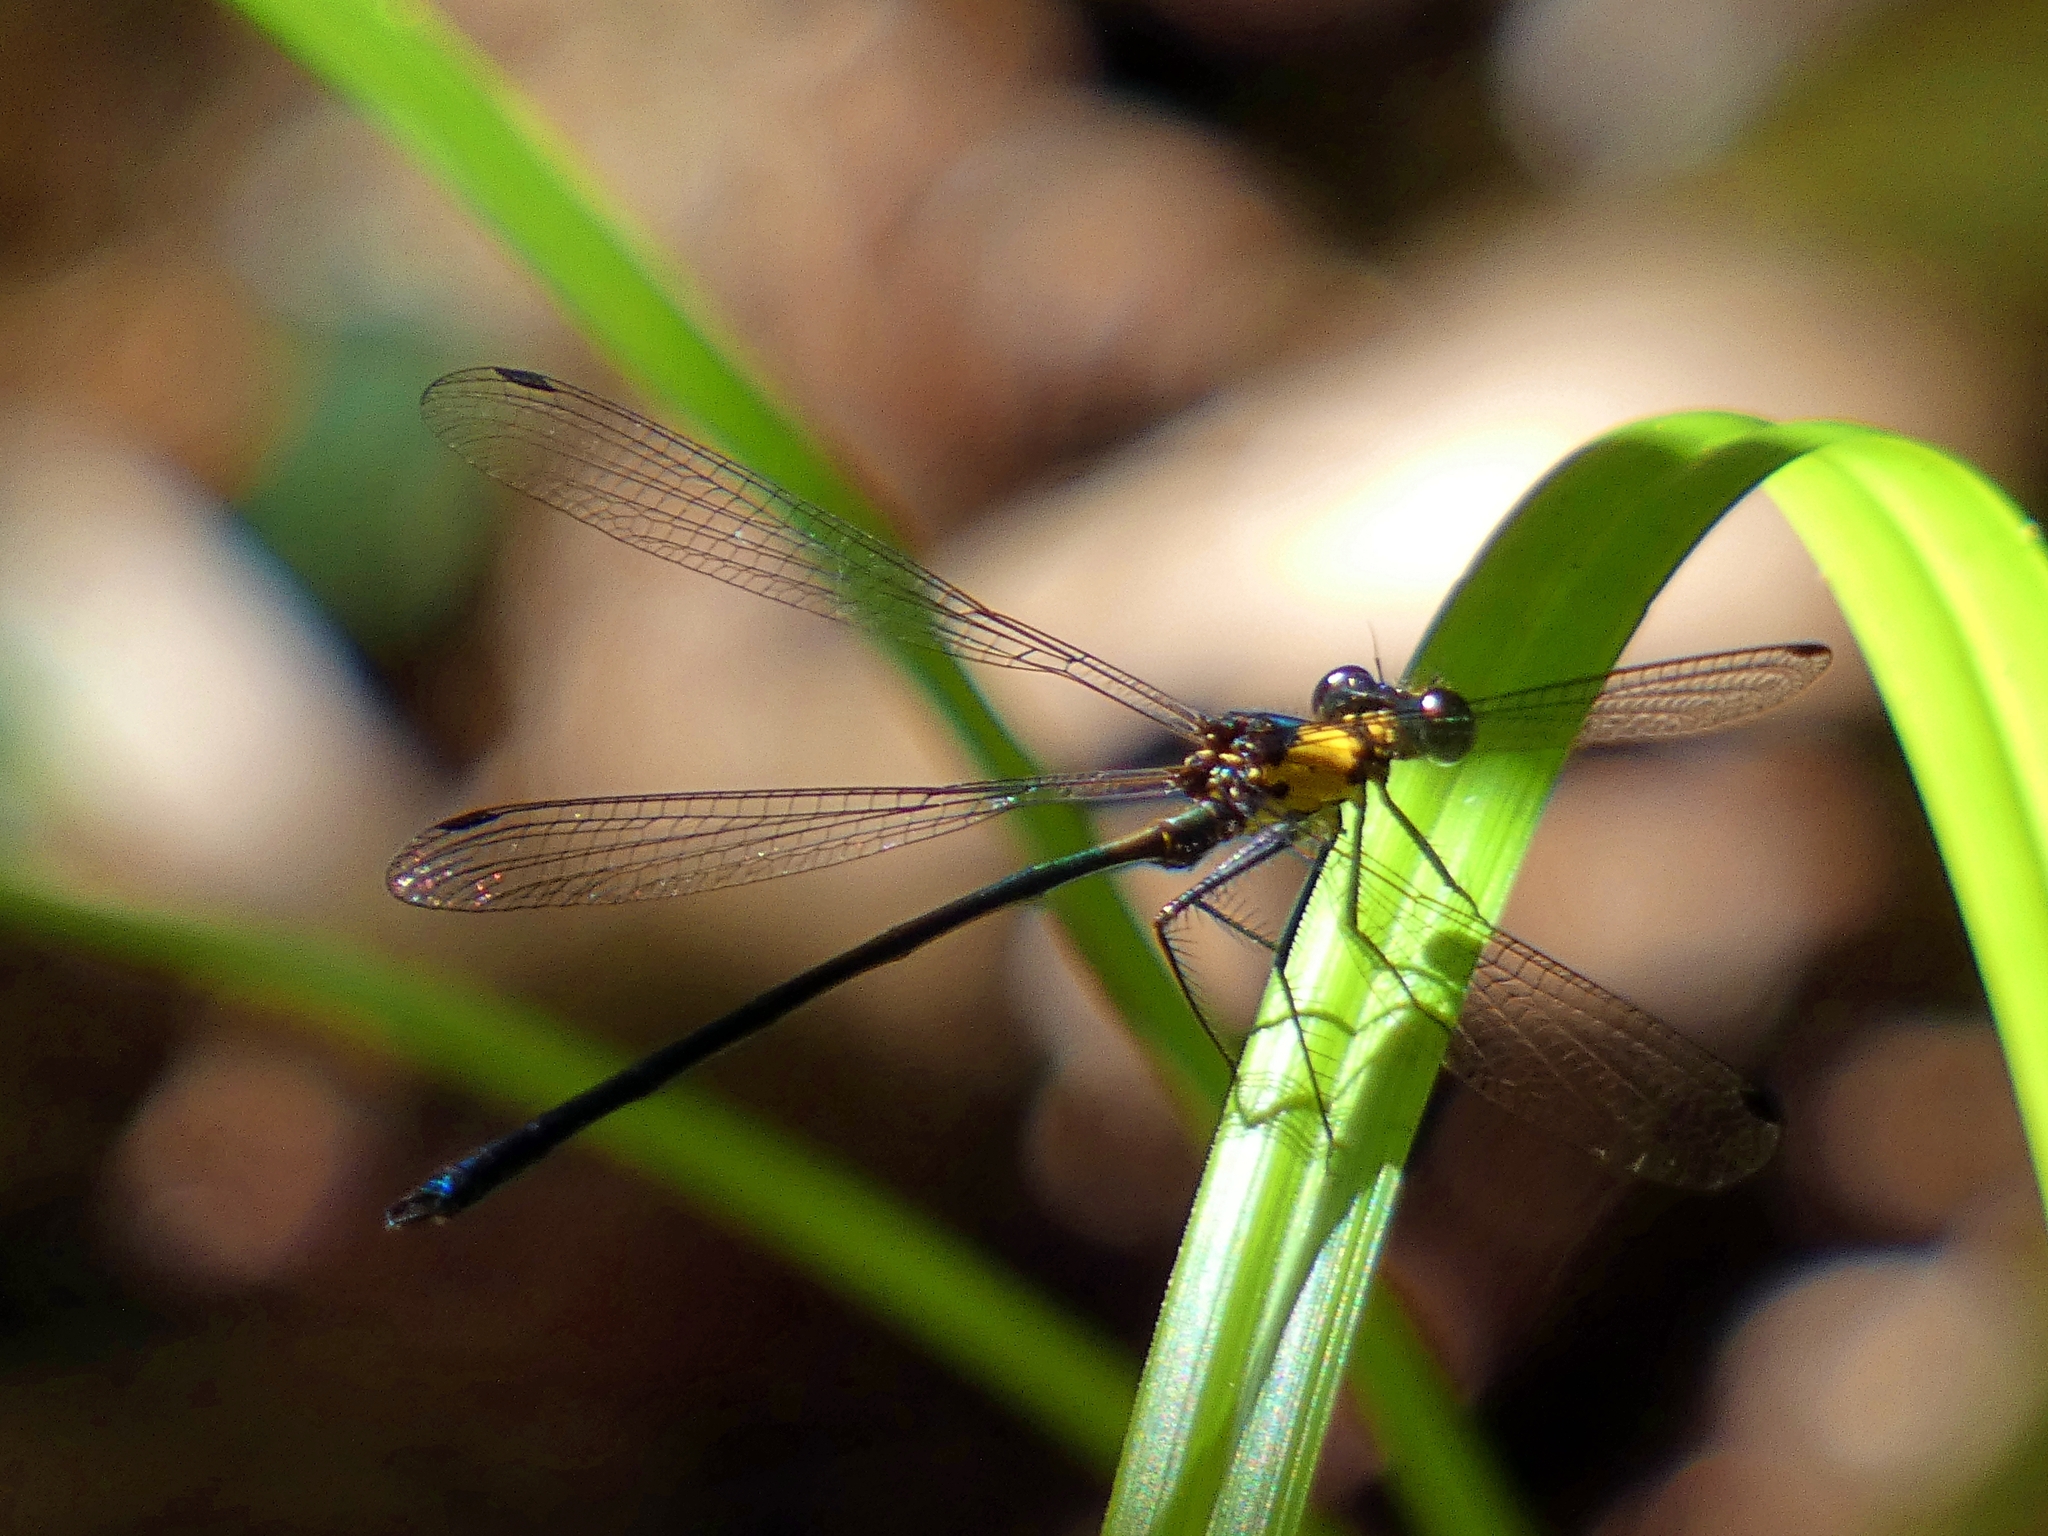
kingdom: Animalia
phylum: Arthropoda
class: Insecta
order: Odonata
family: Argiolestidae
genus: Austroargiolestes
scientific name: Austroargiolestes aureus
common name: Tropical flatwing
